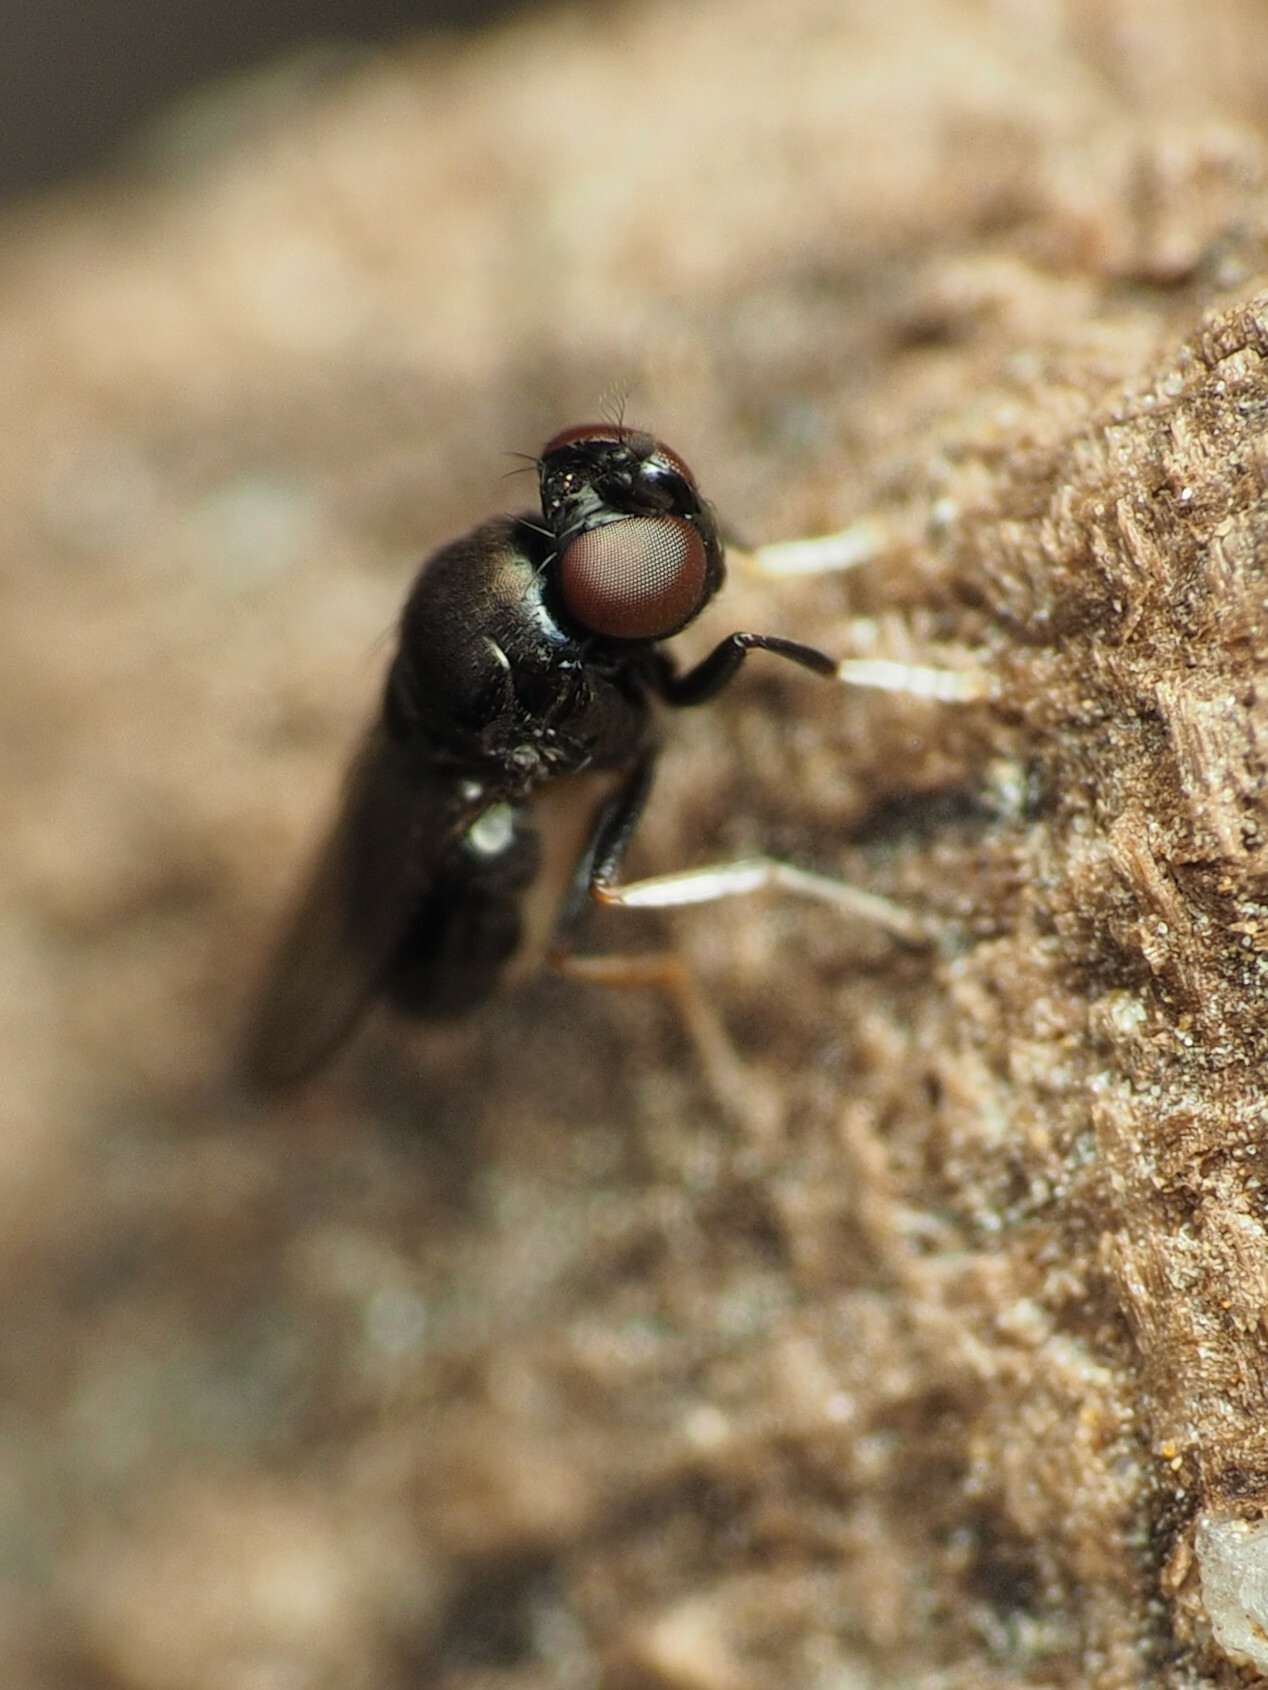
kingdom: Animalia
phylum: Arthropoda
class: Insecta
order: Diptera
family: Ephydridae
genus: Athyroglossa
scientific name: Athyroglossa glaphyropus
